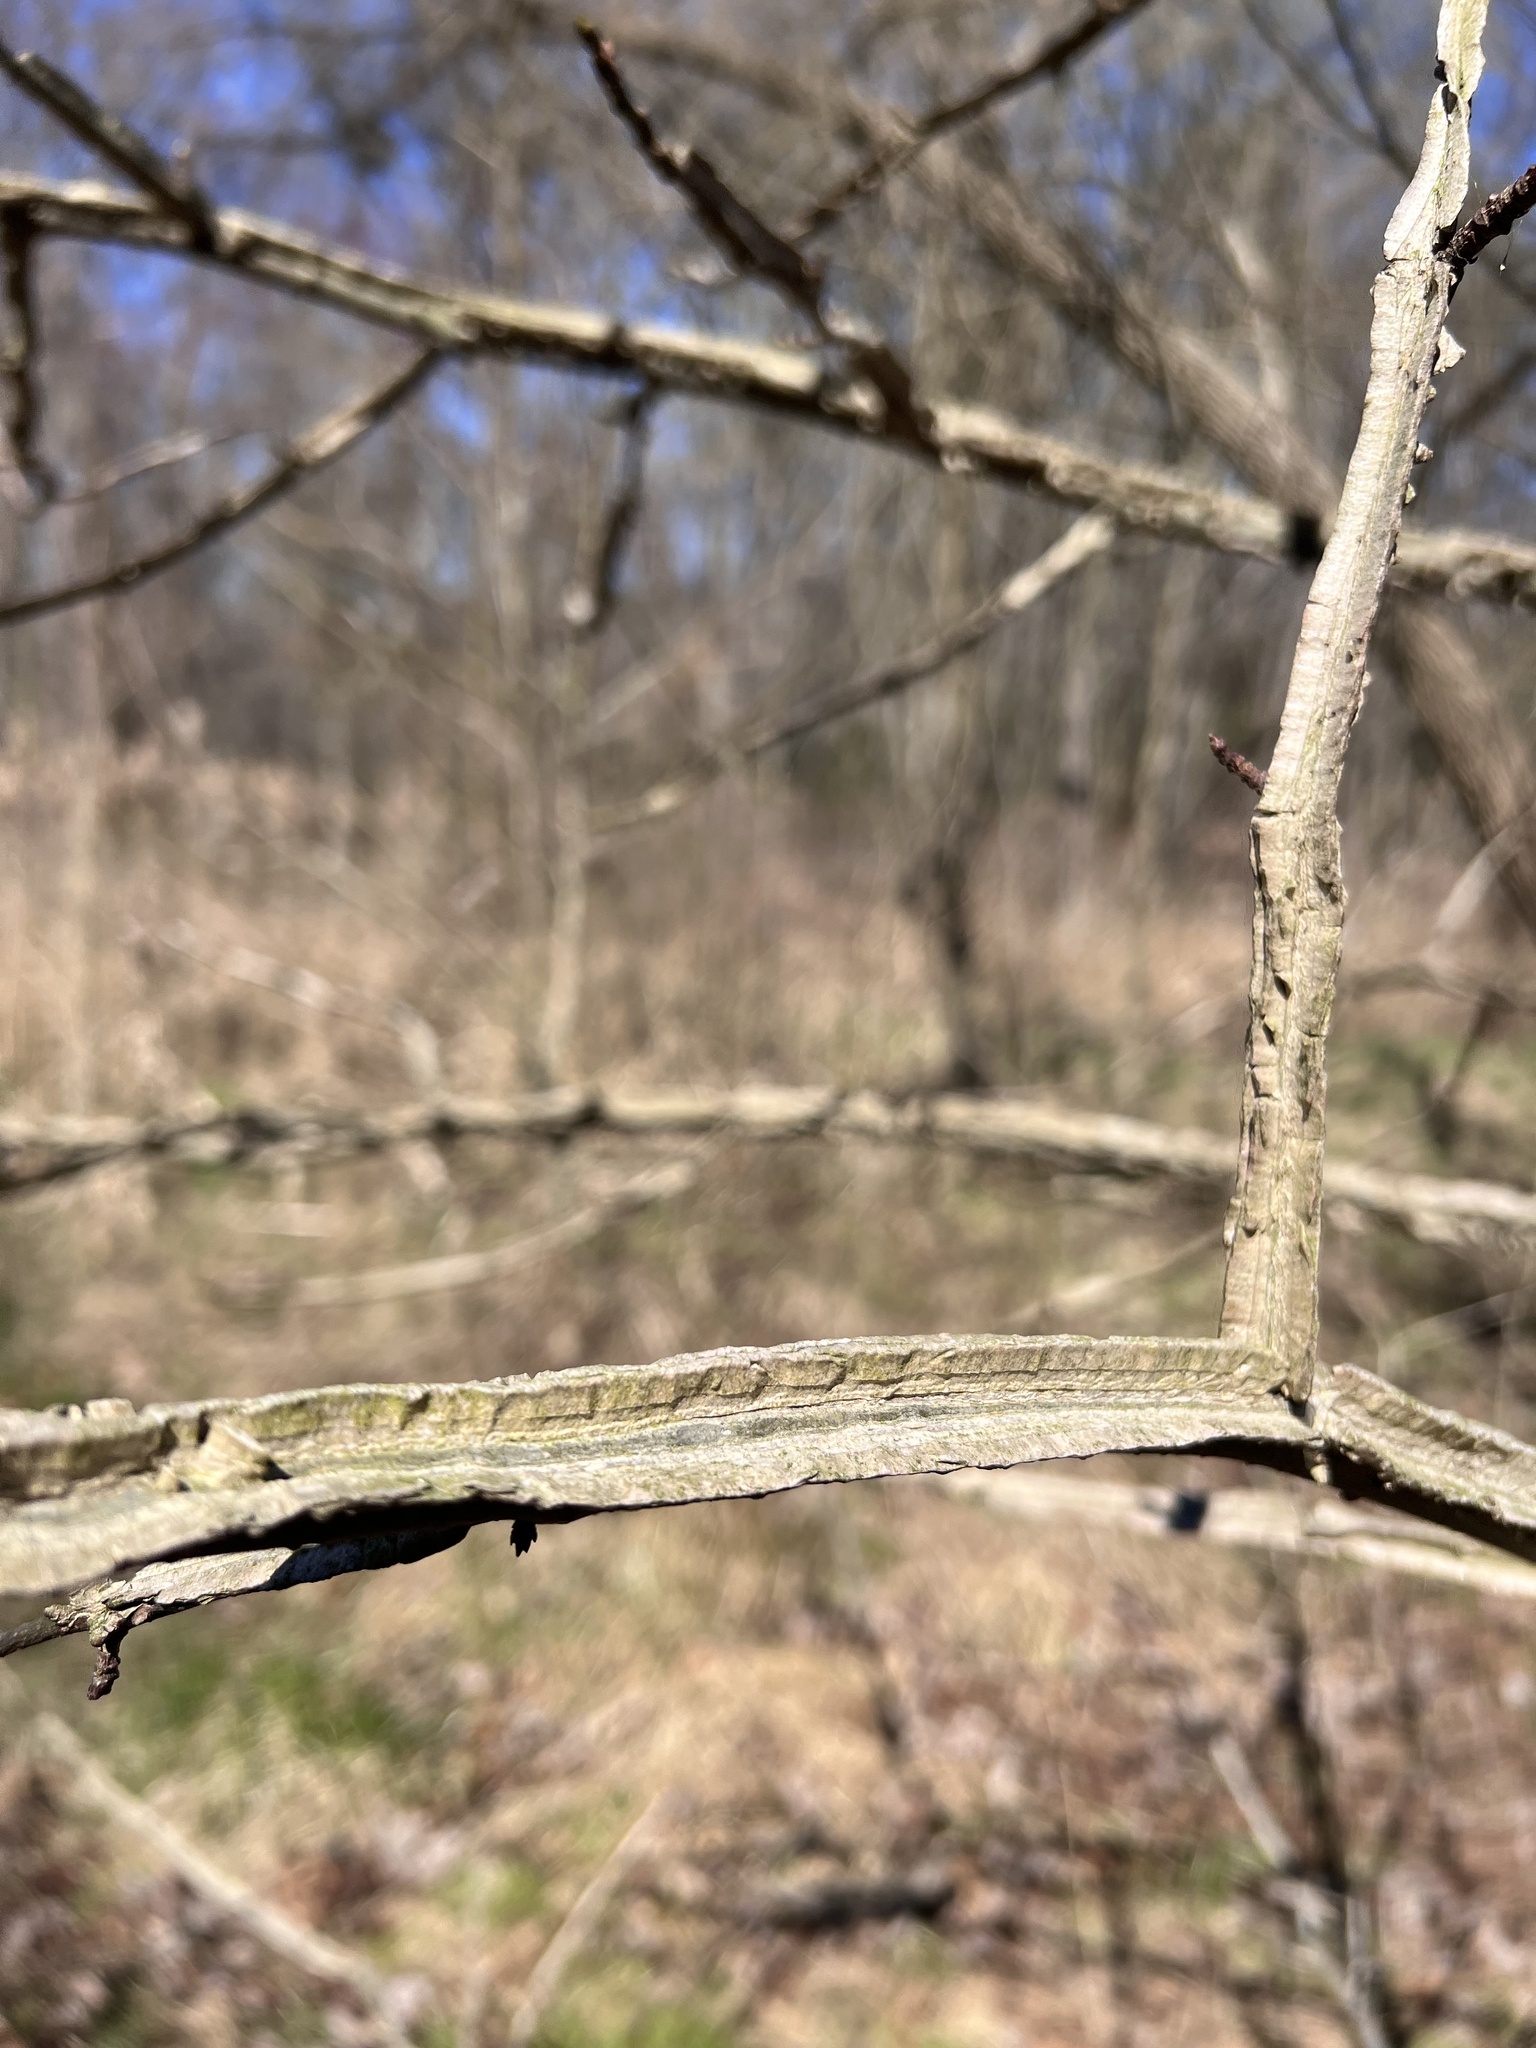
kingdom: Plantae
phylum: Tracheophyta
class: Magnoliopsida
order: Saxifragales
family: Altingiaceae
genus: Liquidambar
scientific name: Liquidambar styraciflua
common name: Sweet gum
